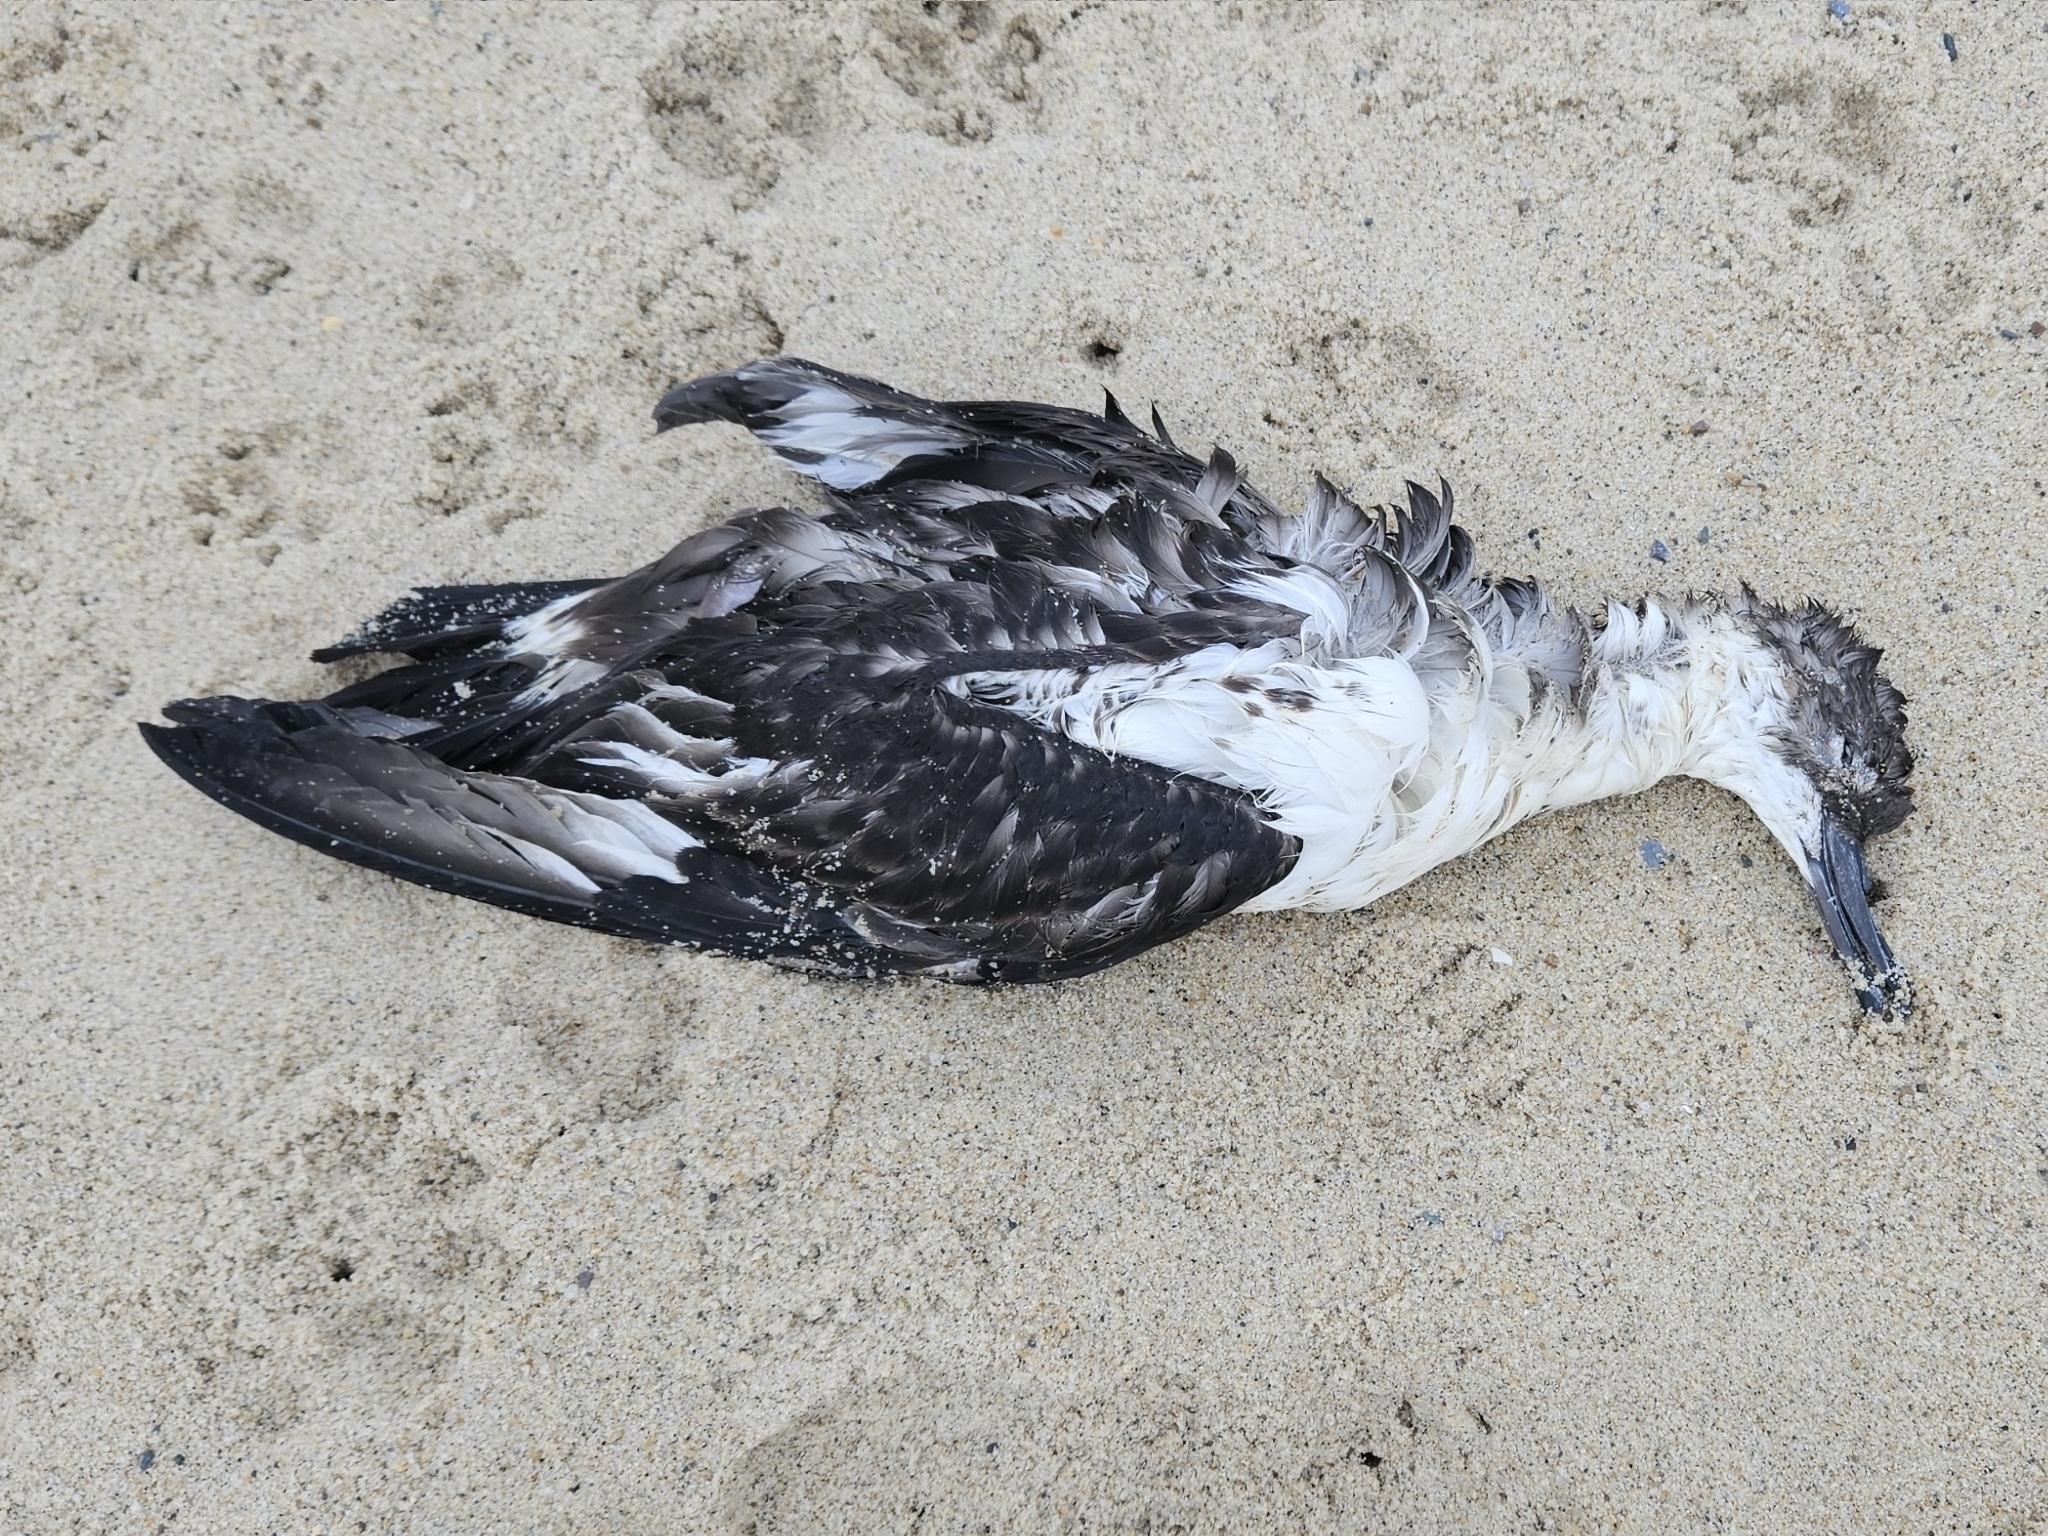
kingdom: Animalia
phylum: Chordata
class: Aves
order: Procellariiformes
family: Procellariidae
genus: Puffinus
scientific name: Puffinus gravis
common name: Great shearwater
